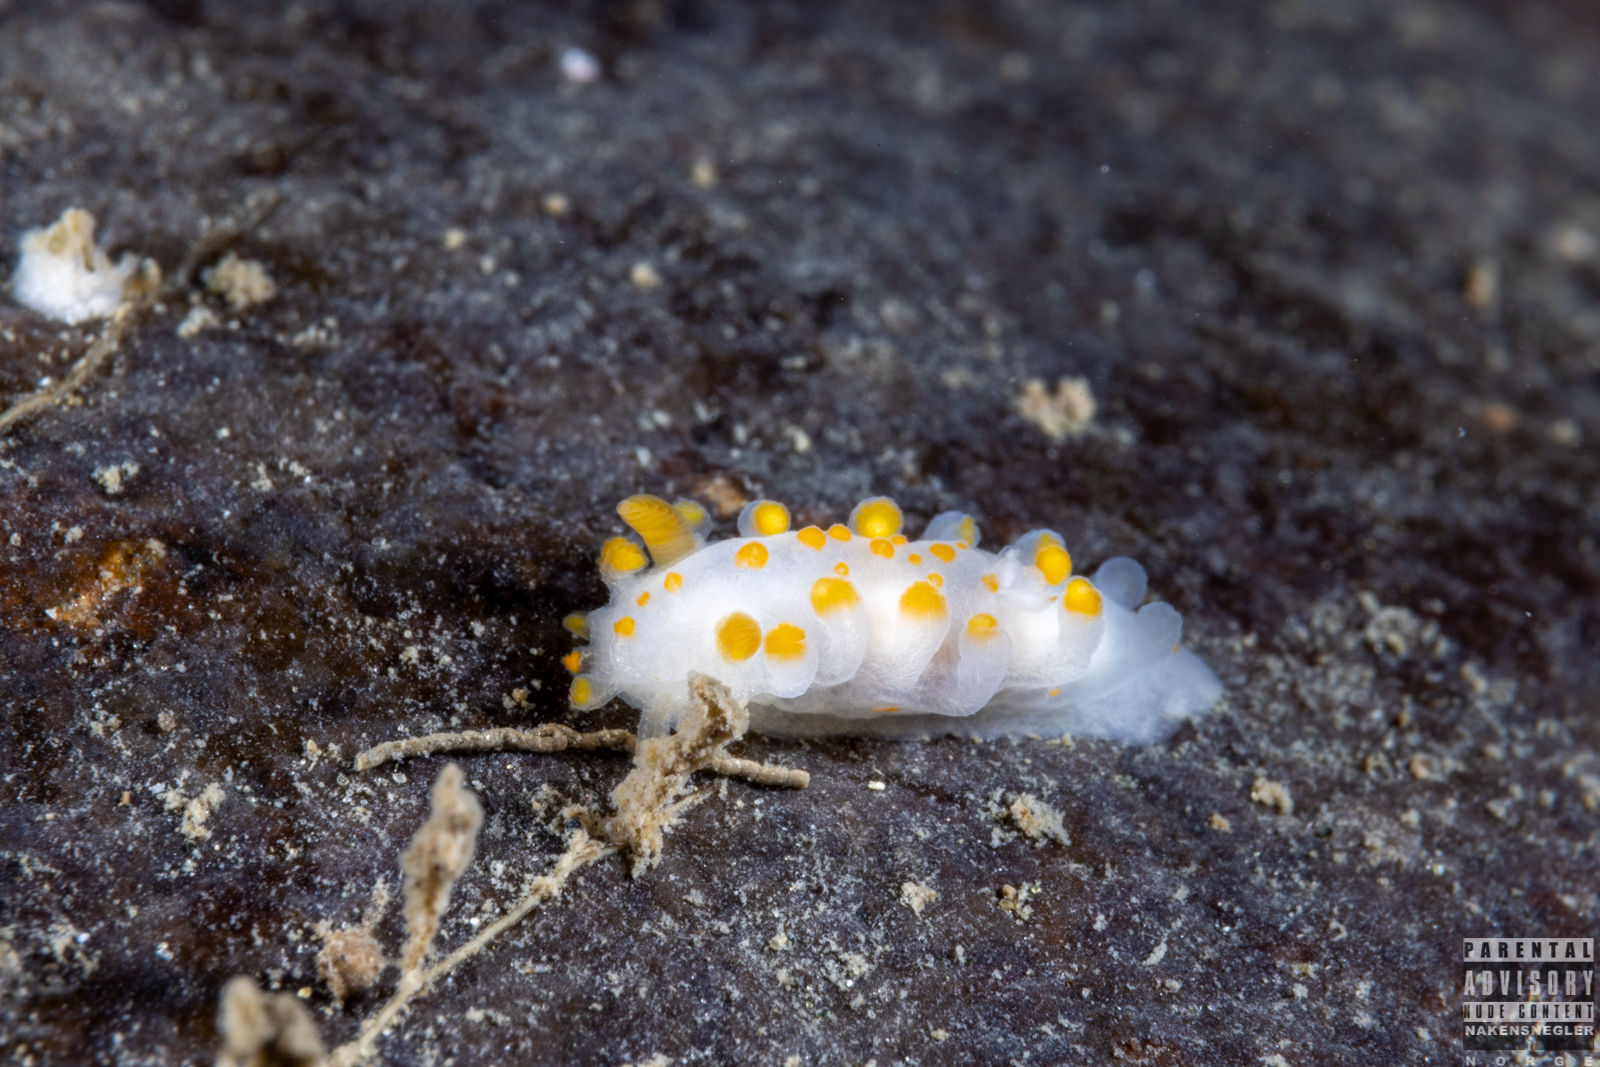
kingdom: Animalia
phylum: Mollusca
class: Gastropoda
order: Nudibranchia
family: Polyceridae
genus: Limacia
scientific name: Limacia clavigera
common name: Orange-clubbed sea slug
